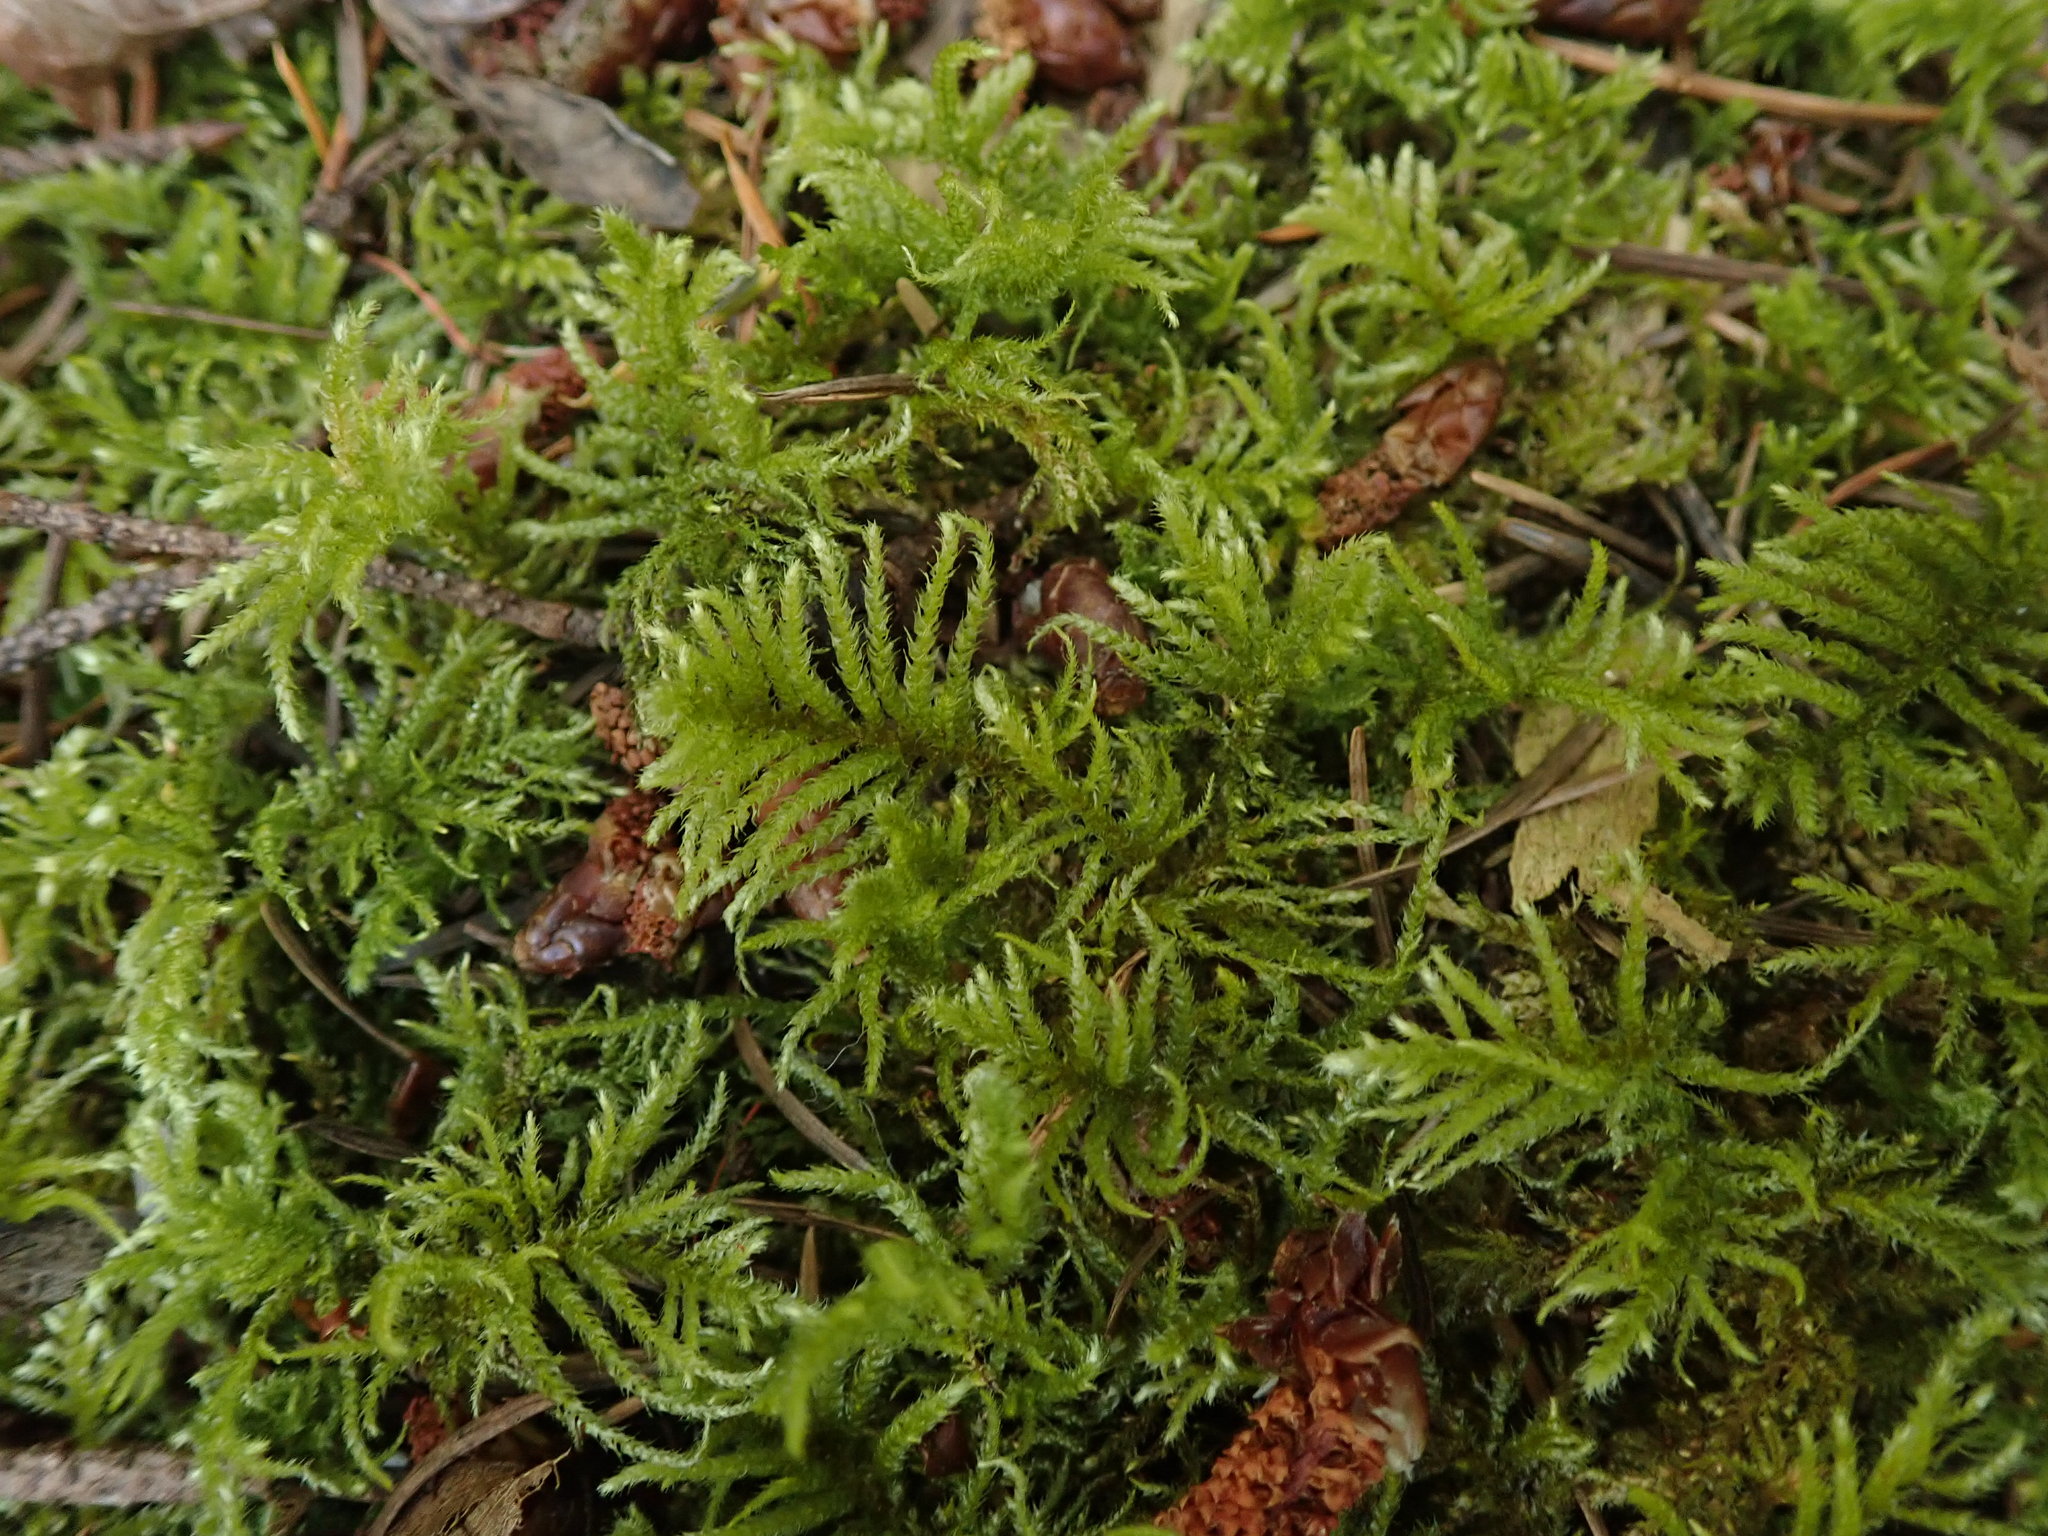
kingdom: Plantae
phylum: Bryophyta
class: Bryopsida
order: Hypnales
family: Brachytheciaceae
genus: Kindbergia
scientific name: Kindbergia oregana
